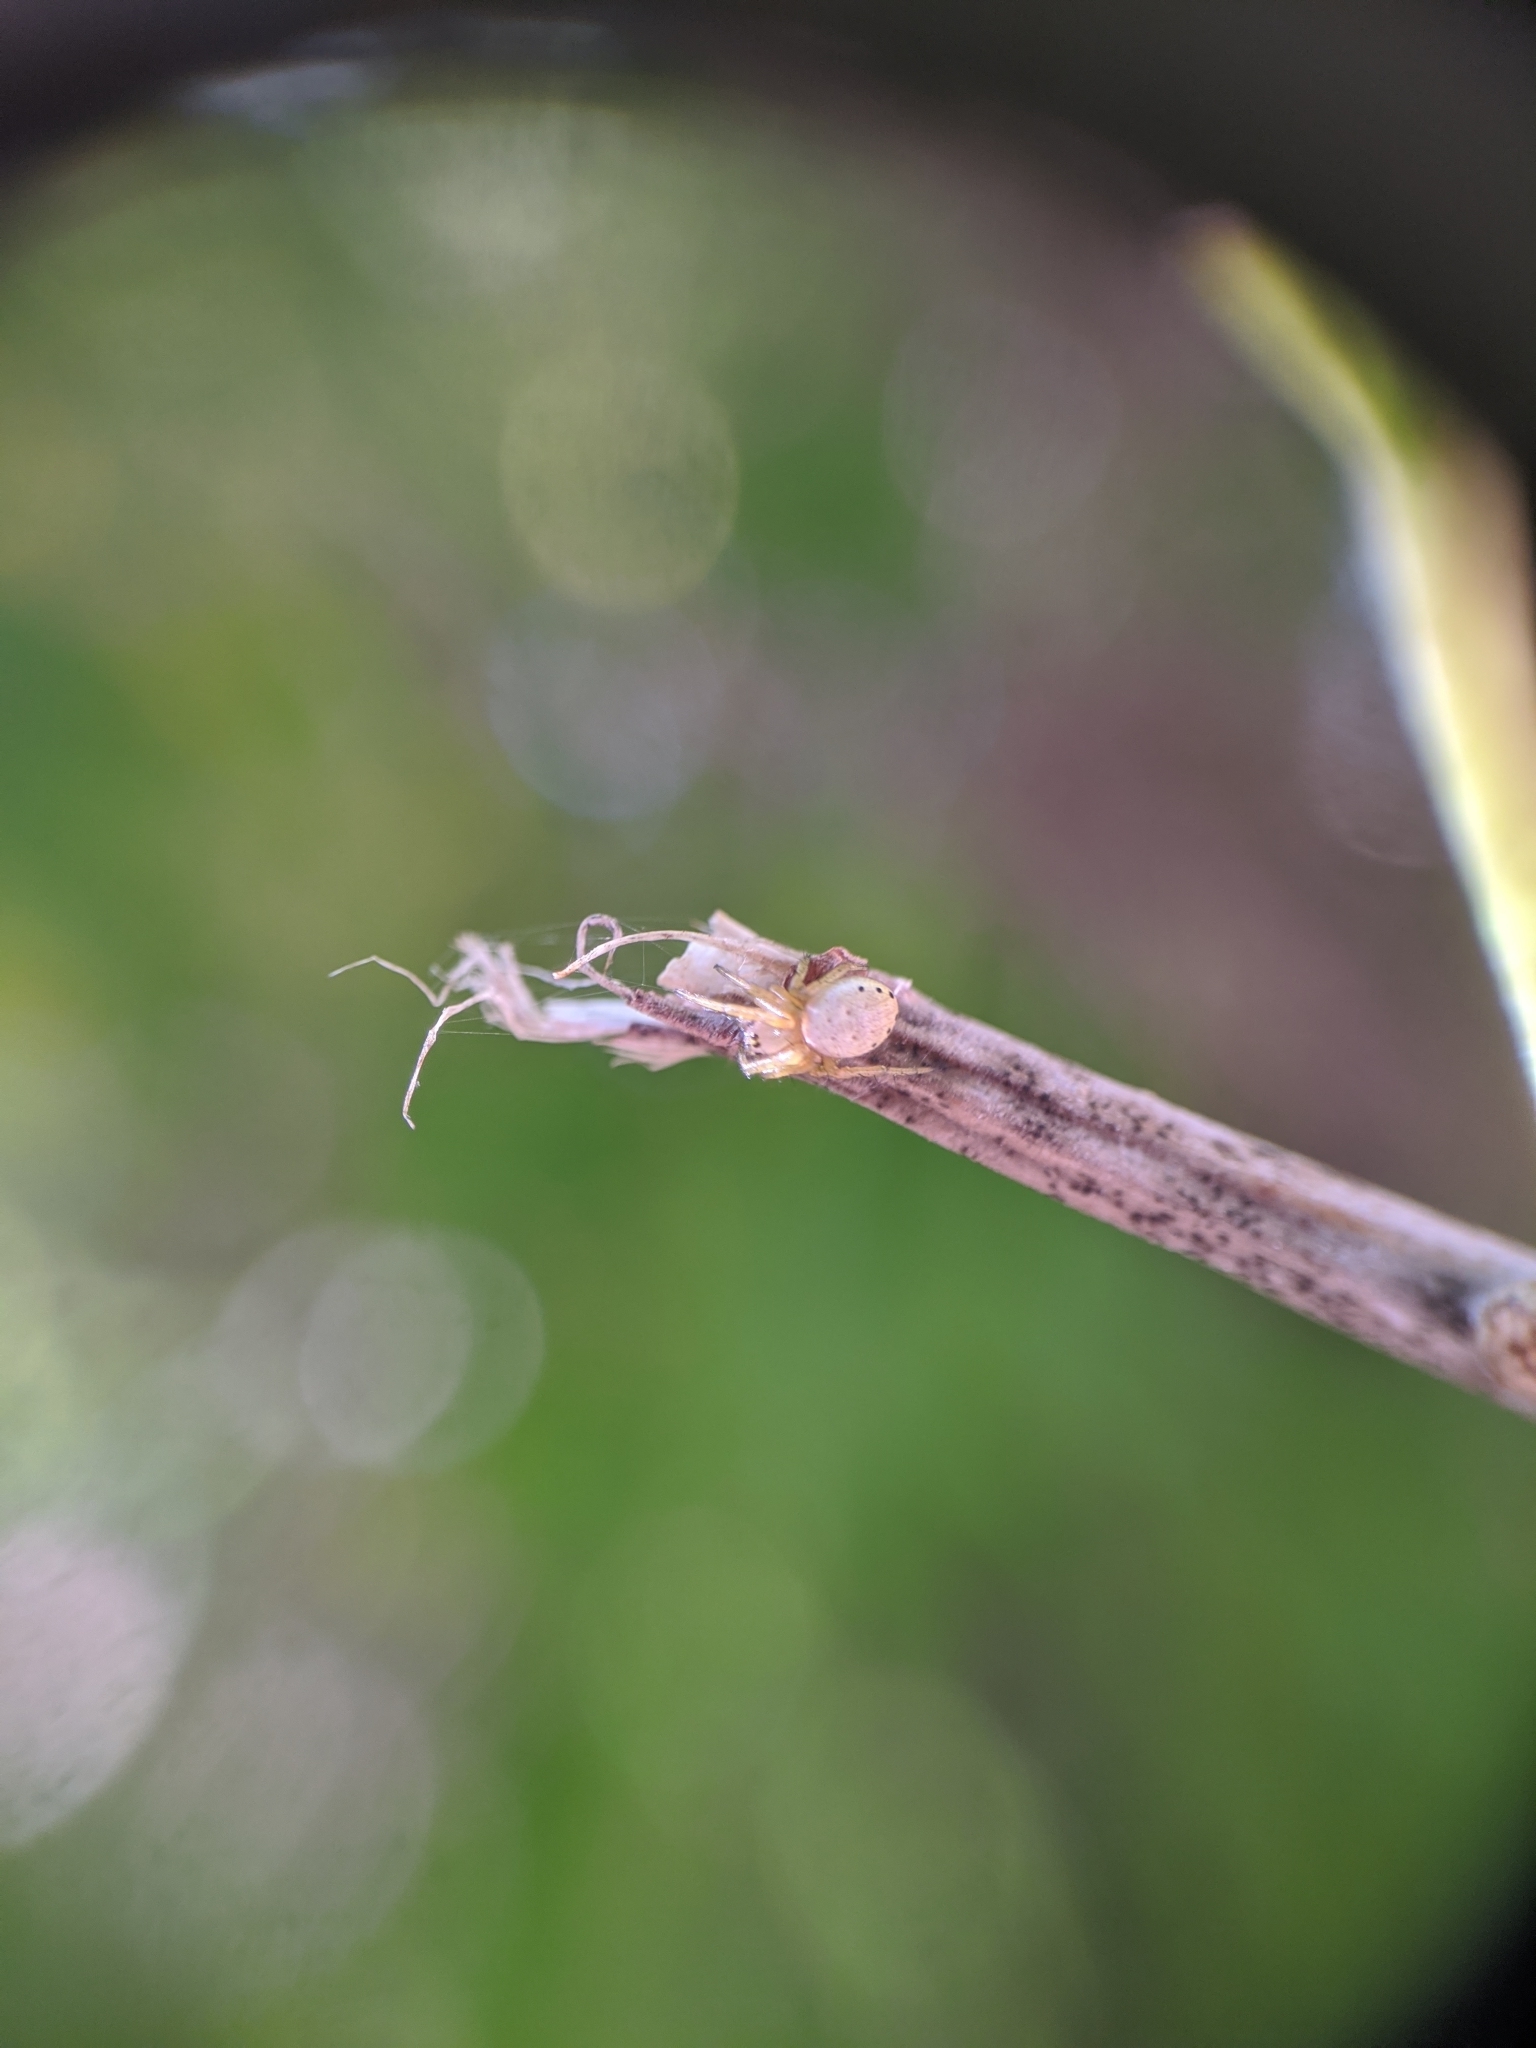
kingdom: Animalia
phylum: Arthropoda
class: Arachnida
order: Araneae
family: Araneidae
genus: Araniella
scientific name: Araniella displicata
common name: Sixspotted orb weaver
